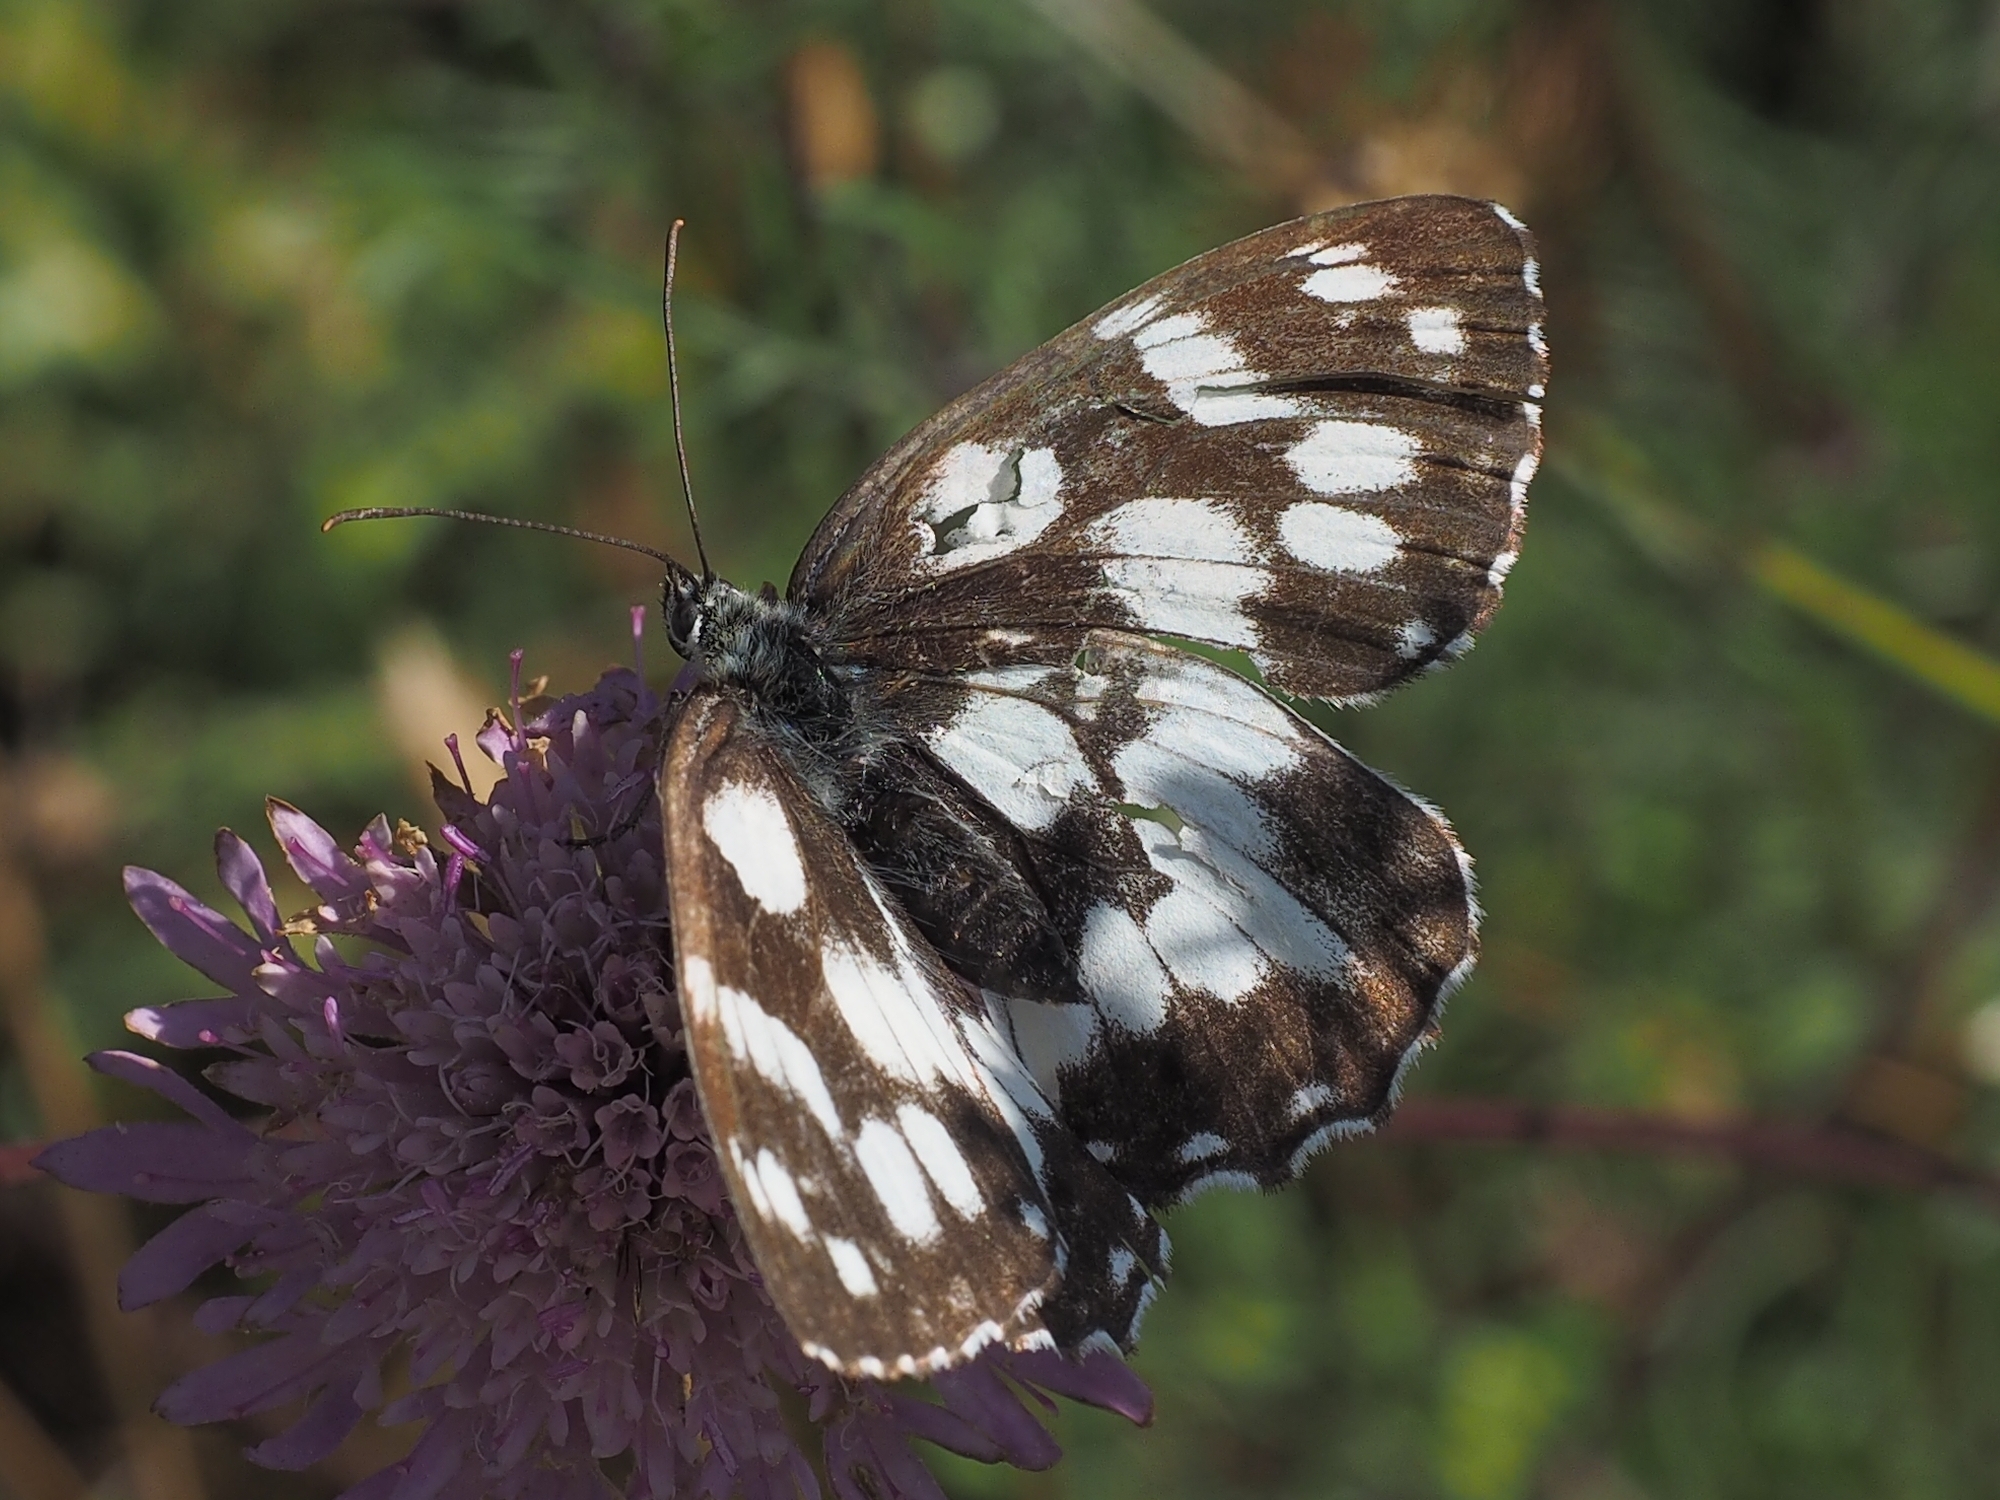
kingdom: Animalia
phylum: Arthropoda
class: Insecta
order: Lepidoptera
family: Nymphalidae
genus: Melanargia
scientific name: Melanargia galathea
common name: Marbled white
